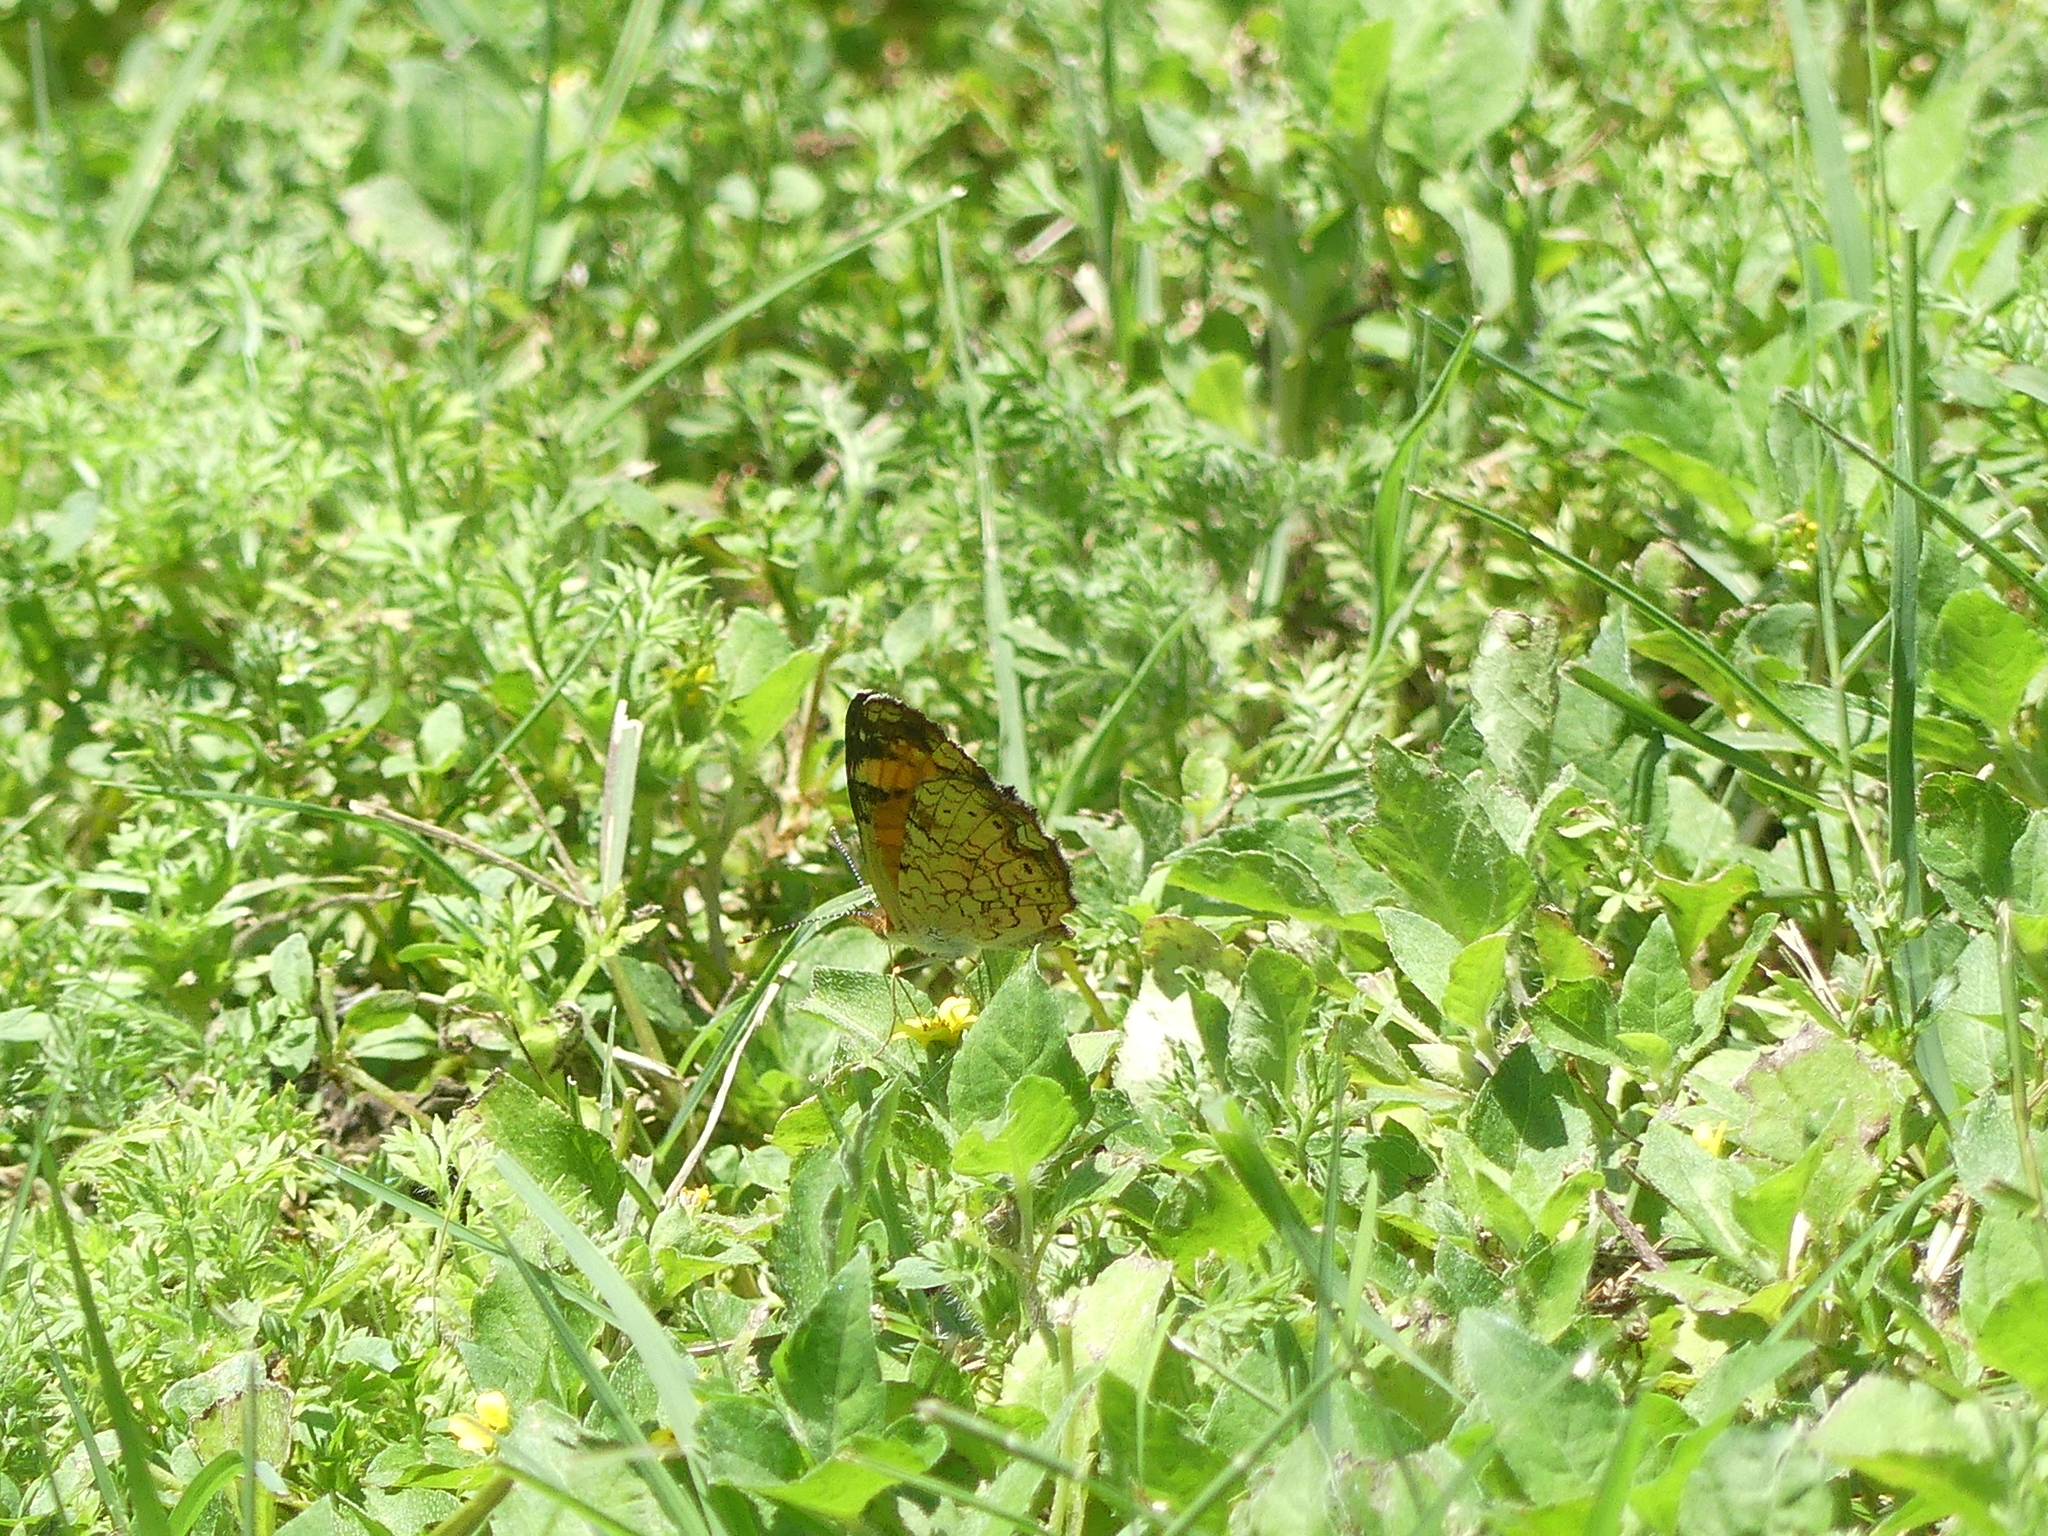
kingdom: Animalia
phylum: Arthropoda
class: Insecta
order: Lepidoptera
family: Nymphalidae
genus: Phyciodes
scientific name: Phyciodes tharos
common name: Pearl crescent
